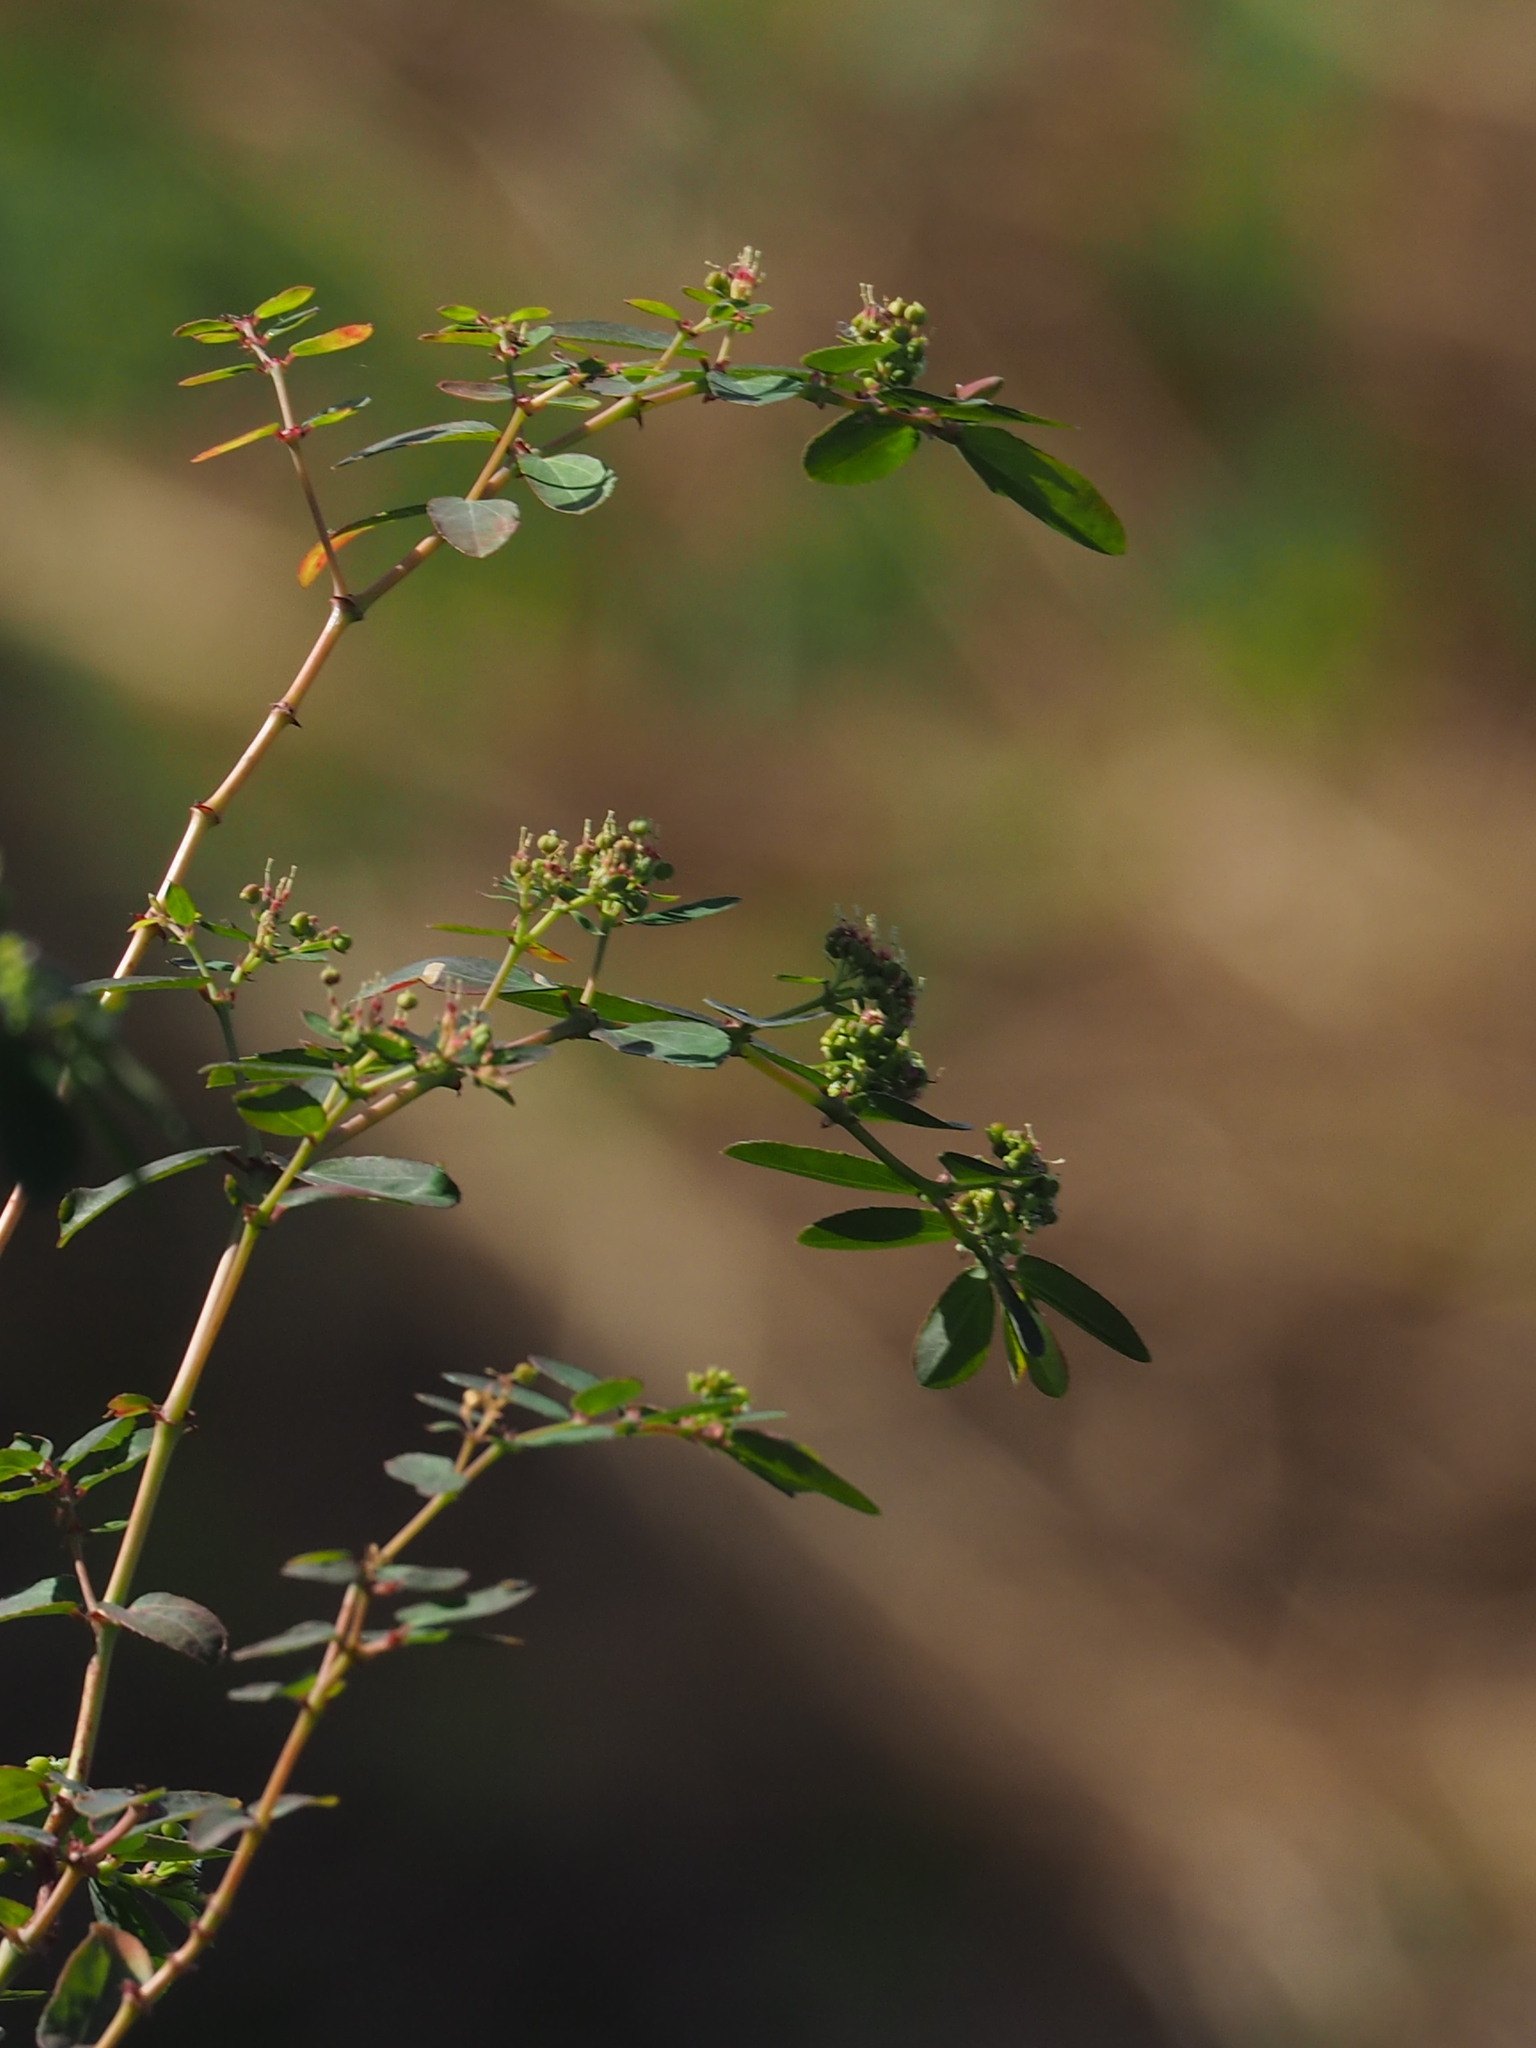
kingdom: Plantae
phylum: Tracheophyta
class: Magnoliopsida
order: Malpighiales
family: Euphorbiaceae
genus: Euphorbia
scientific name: Euphorbia hypericifolia
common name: Graceful sandmat
